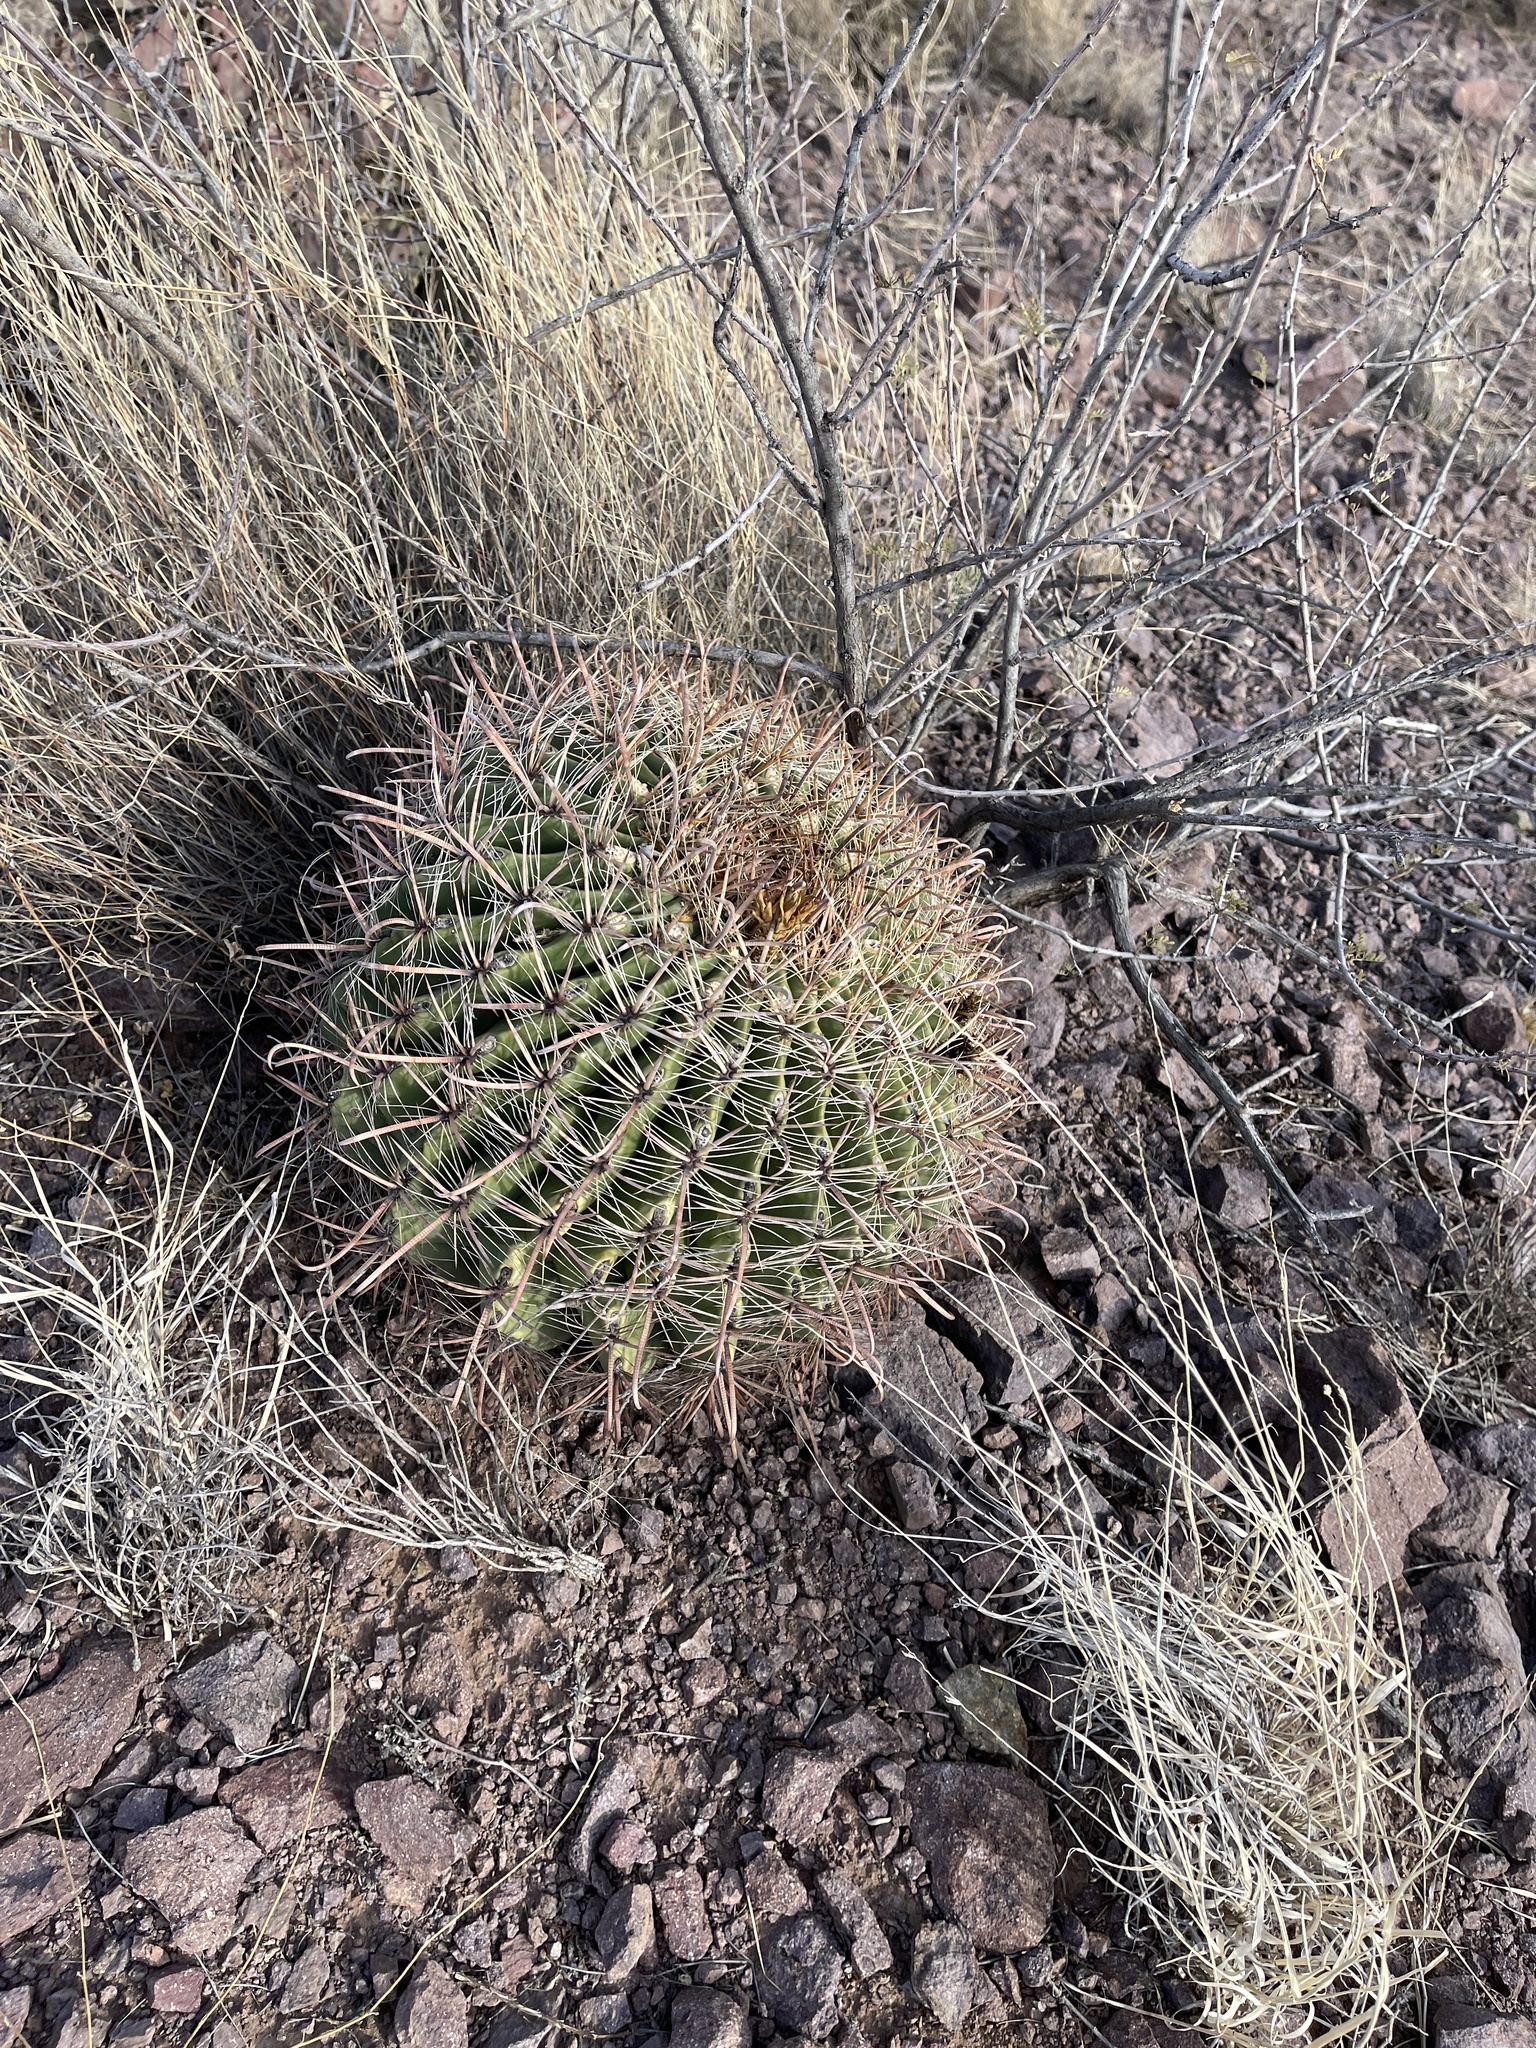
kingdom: Plantae
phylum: Tracheophyta
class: Magnoliopsida
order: Caryophyllales
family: Cactaceae
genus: Ferocactus
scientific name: Ferocactus wislizeni
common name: Candy barrel cactus
